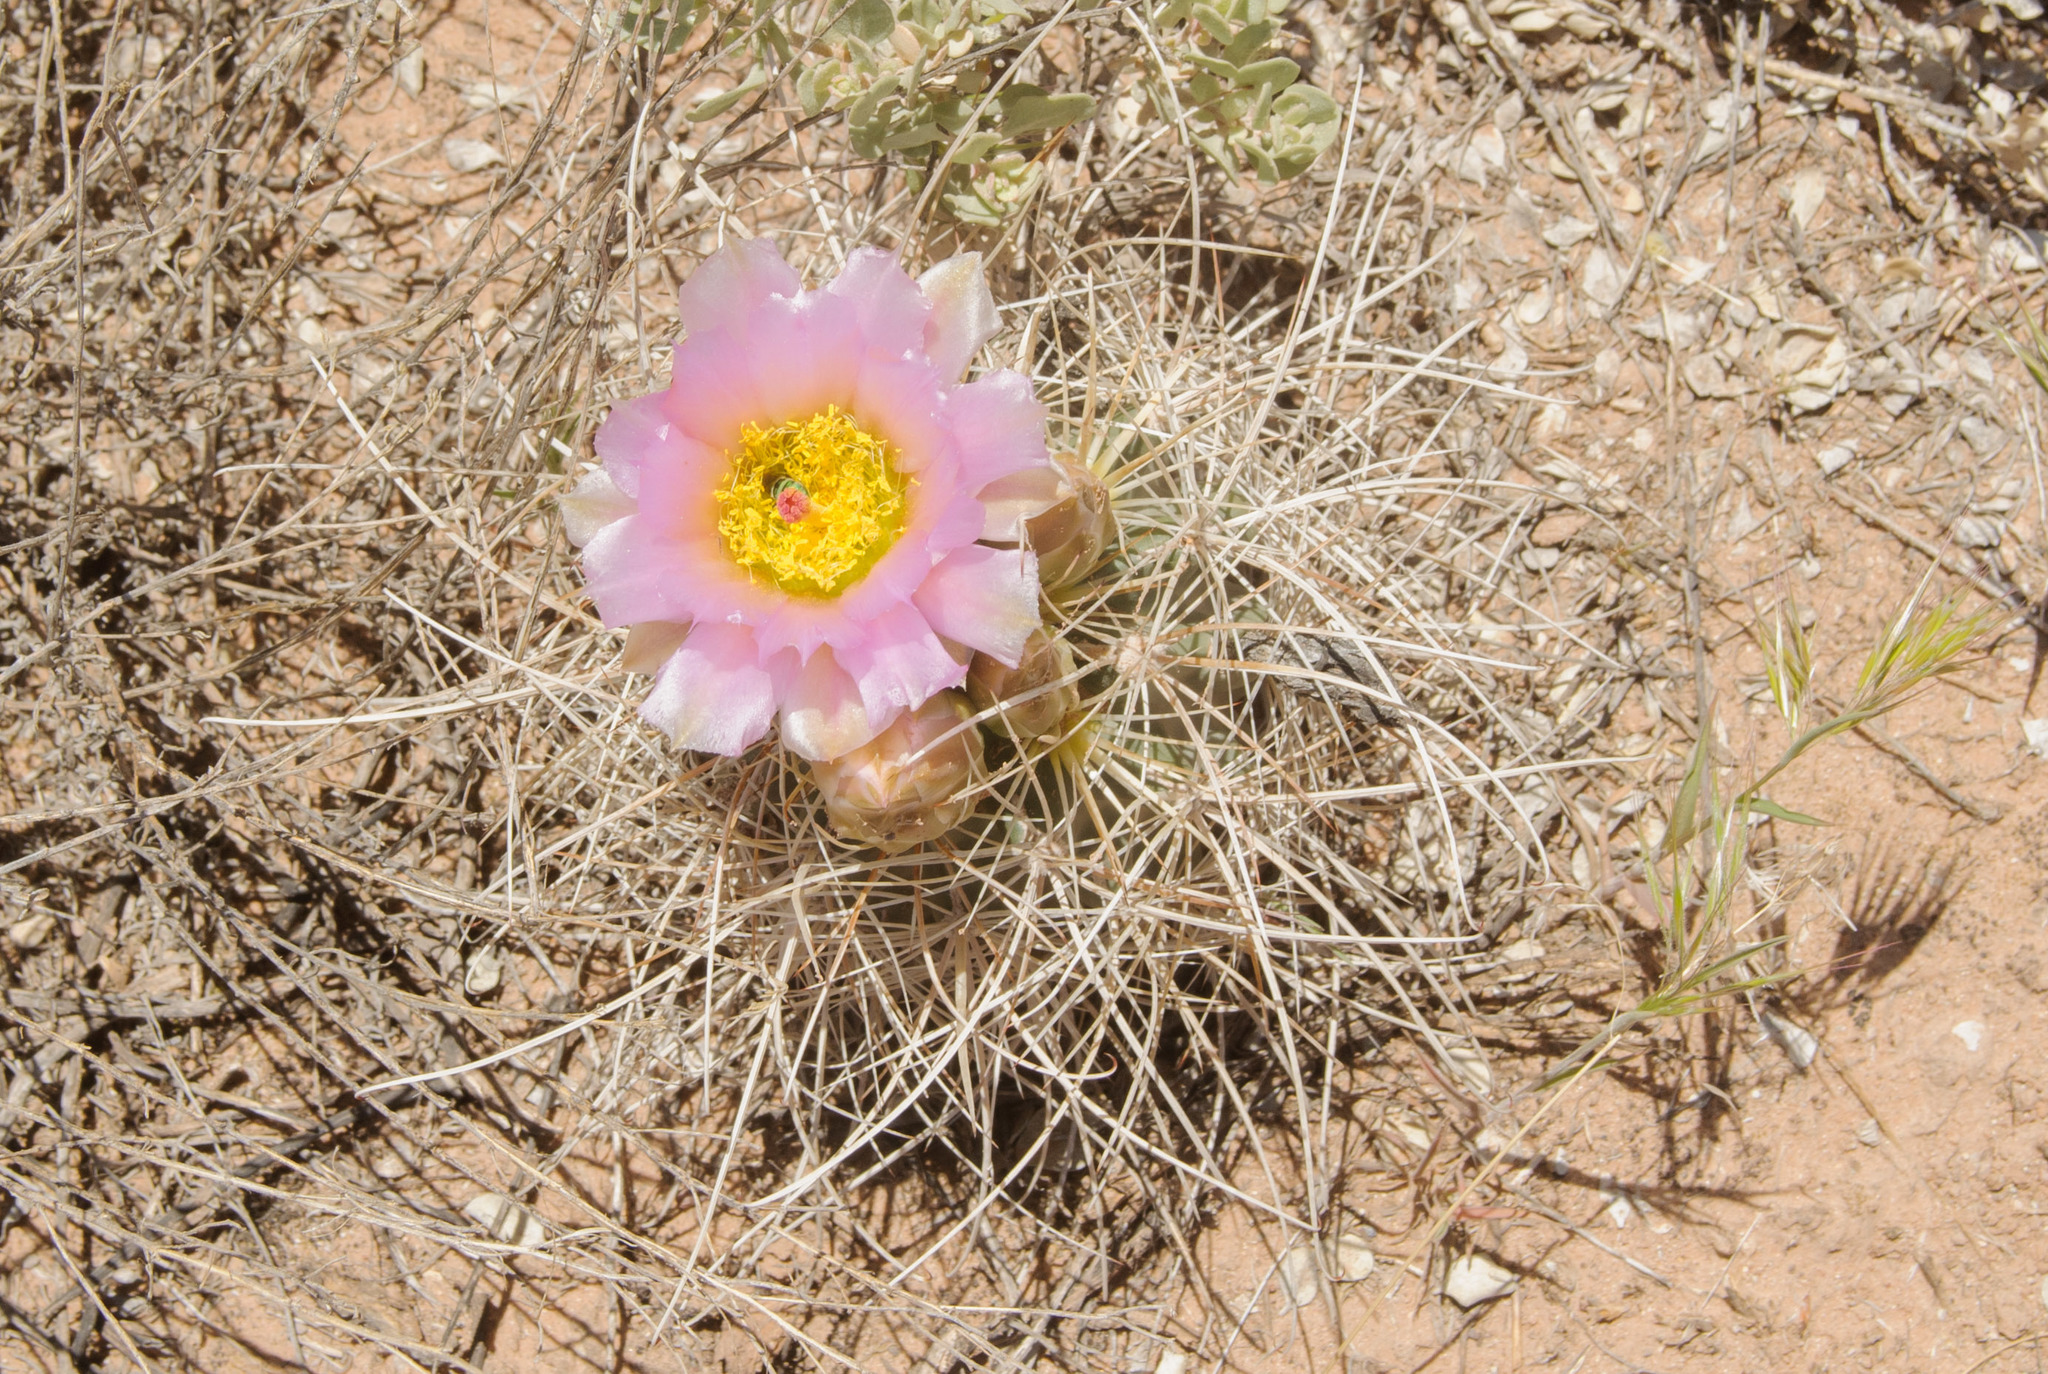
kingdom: Plantae
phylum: Tracheophyta
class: Magnoliopsida
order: Caryophyllales
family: Cactaceae
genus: Sclerocactus
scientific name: Sclerocactus parviflorus
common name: Small-flower fishhook cactus
